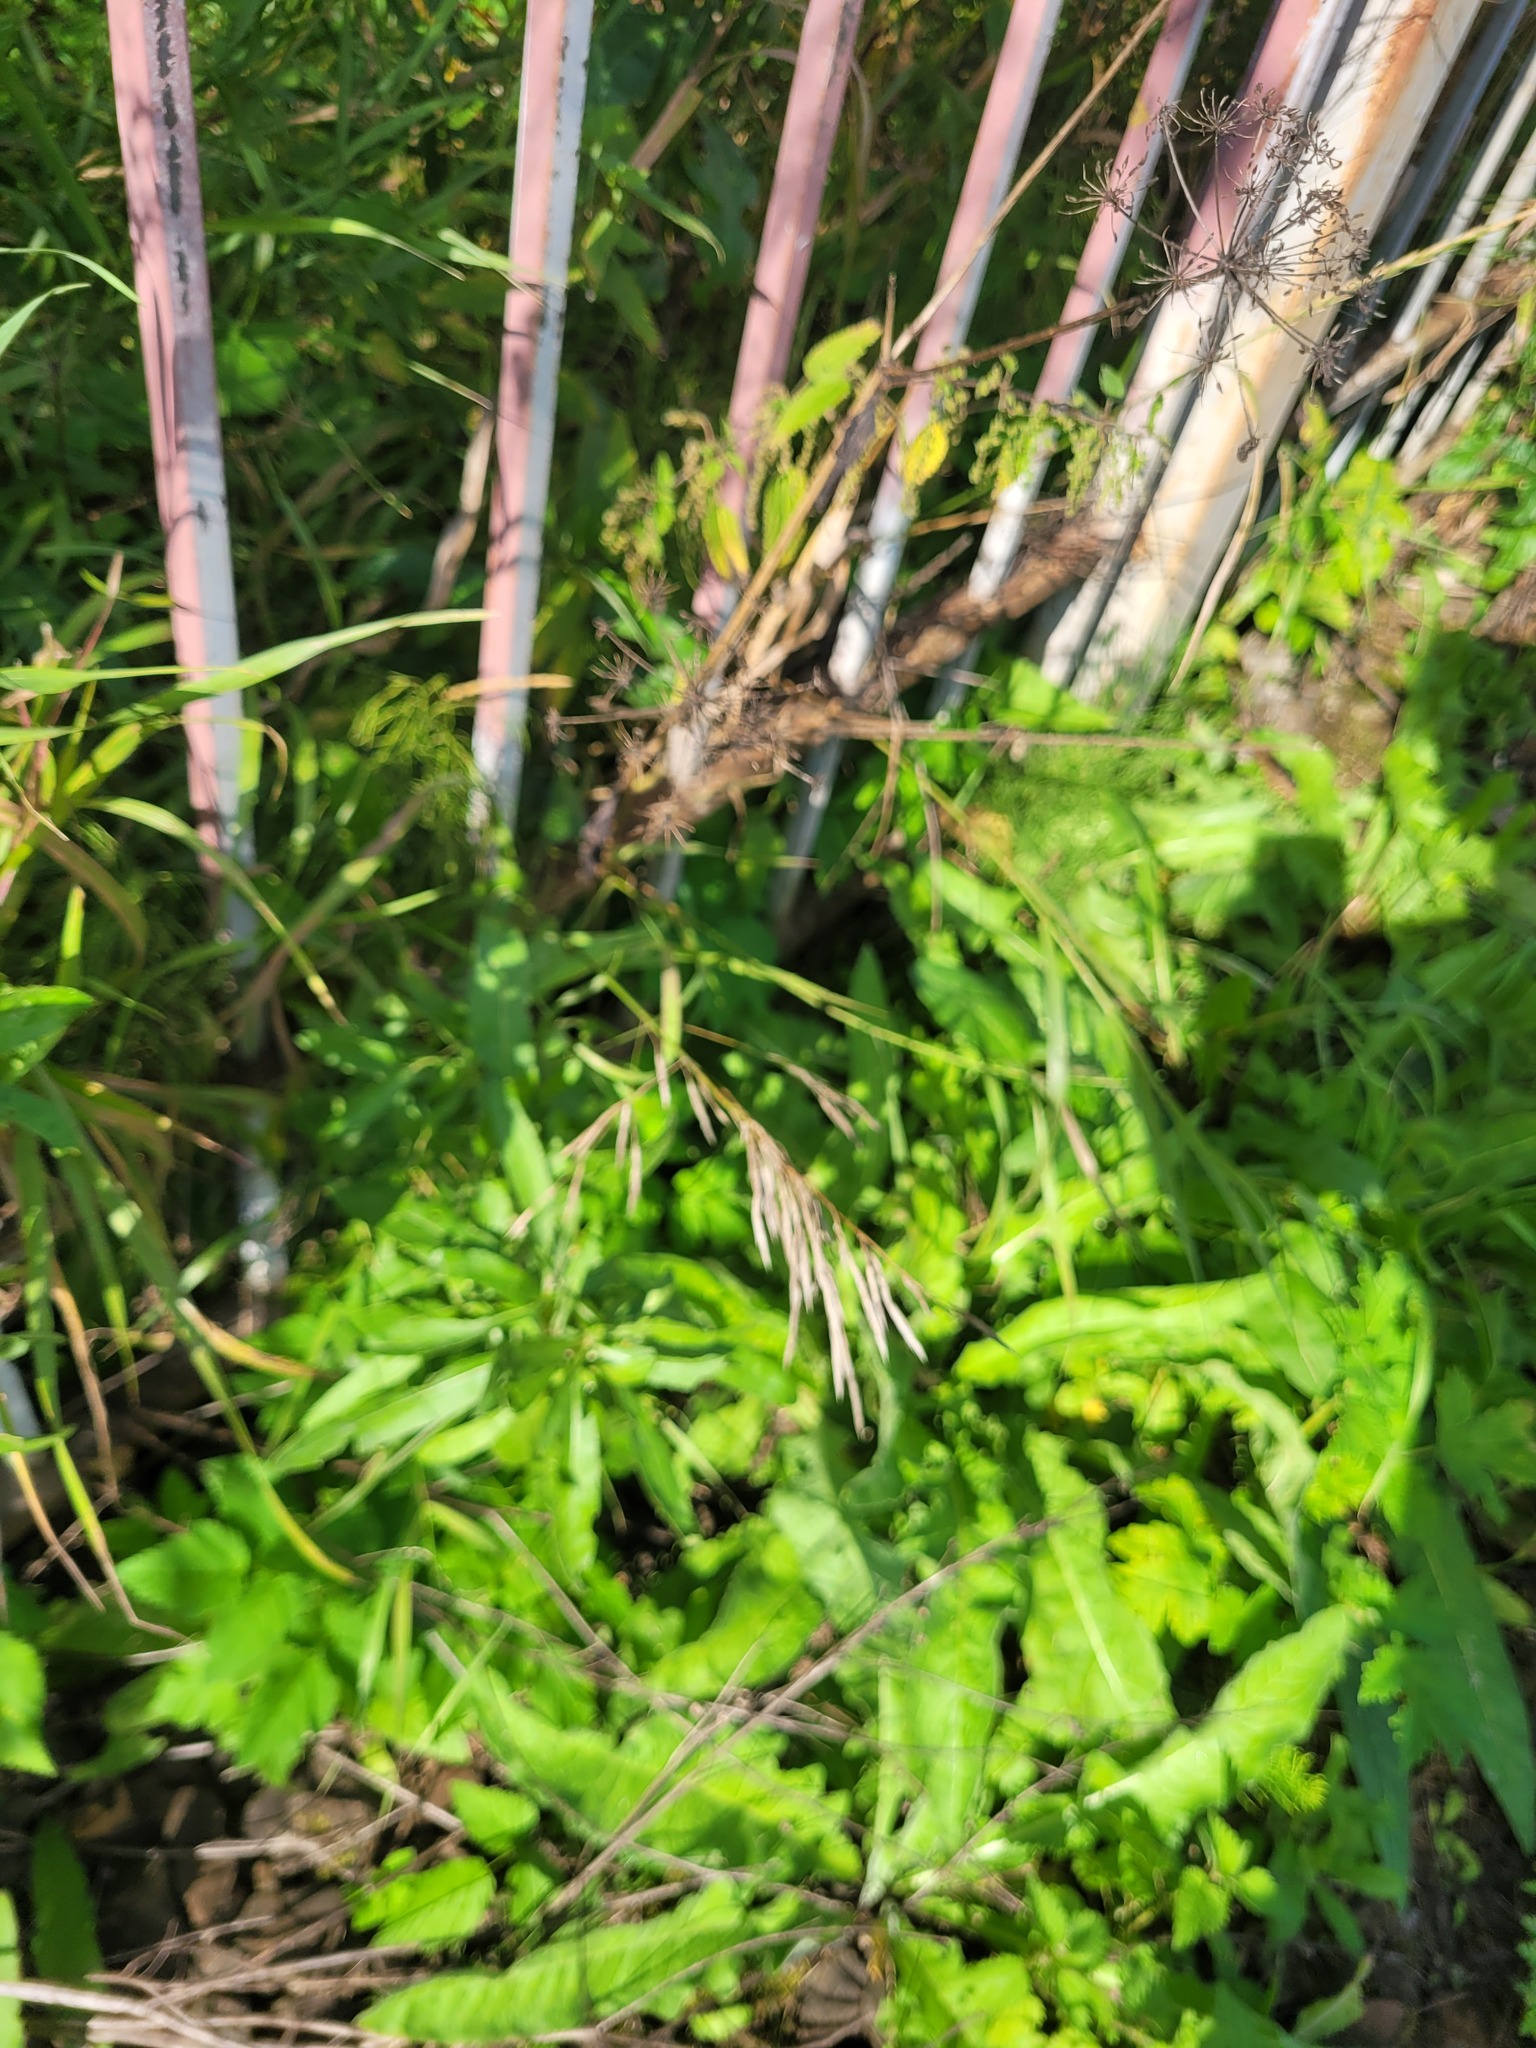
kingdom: Plantae
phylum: Tracheophyta
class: Liliopsida
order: Poales
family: Poaceae
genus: Bromus
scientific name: Bromus inermis
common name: Smooth brome
